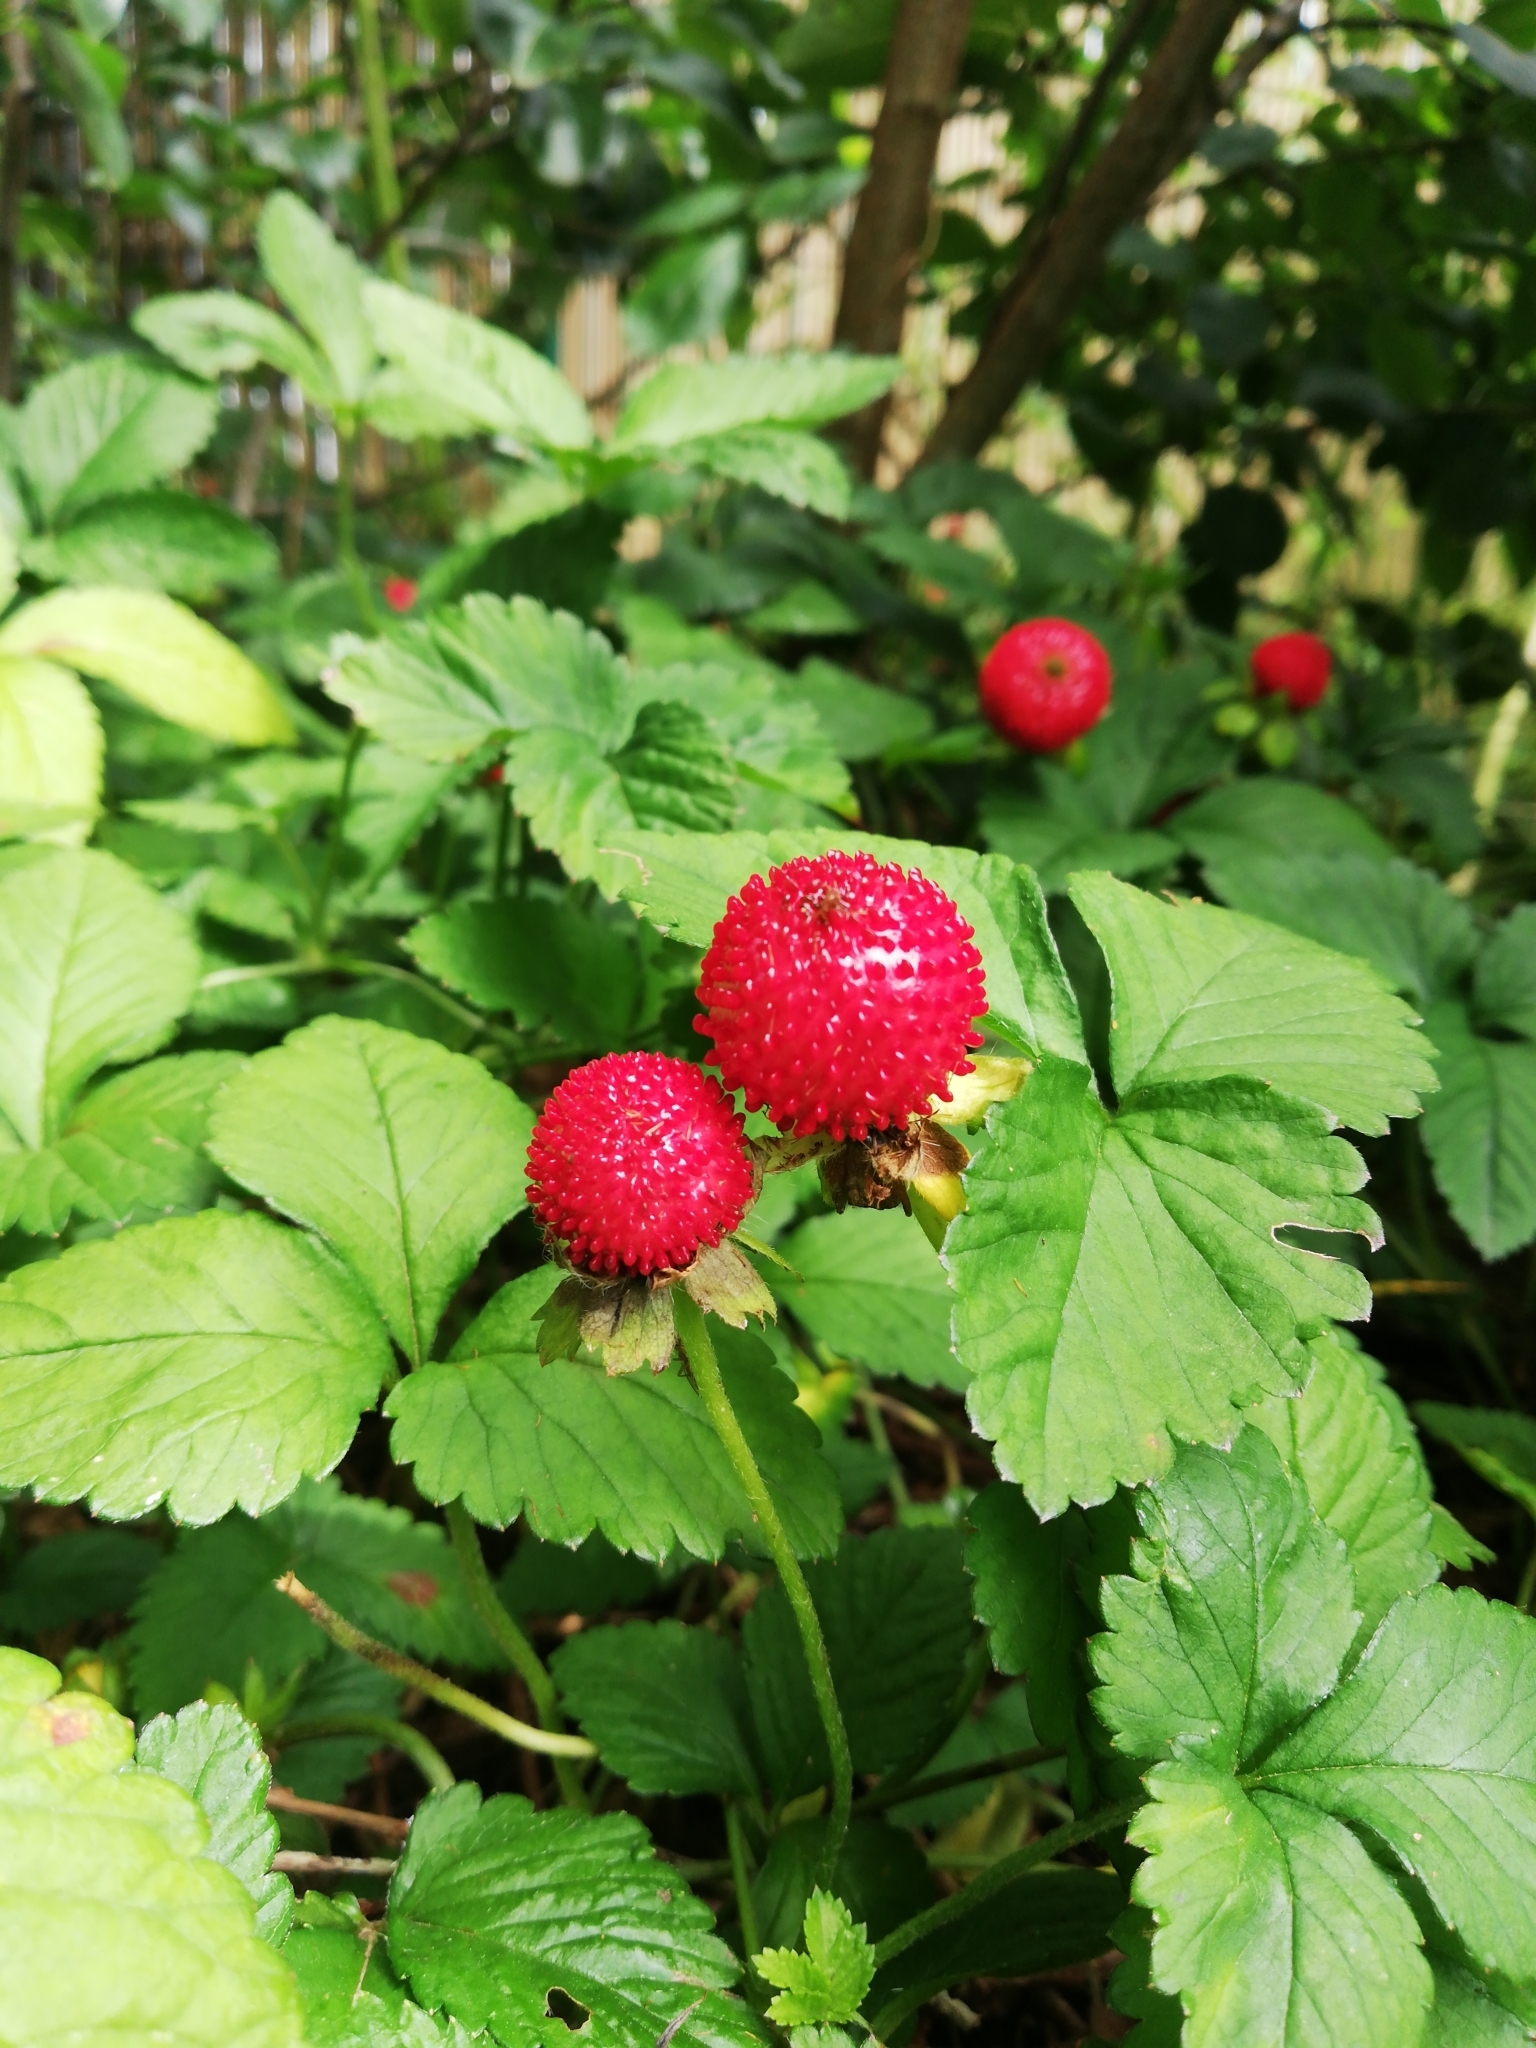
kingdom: Plantae
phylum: Tracheophyta
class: Magnoliopsida
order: Rosales
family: Rosaceae
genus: Potentilla
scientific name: Potentilla indica
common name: Yellow-flowered strawberry
